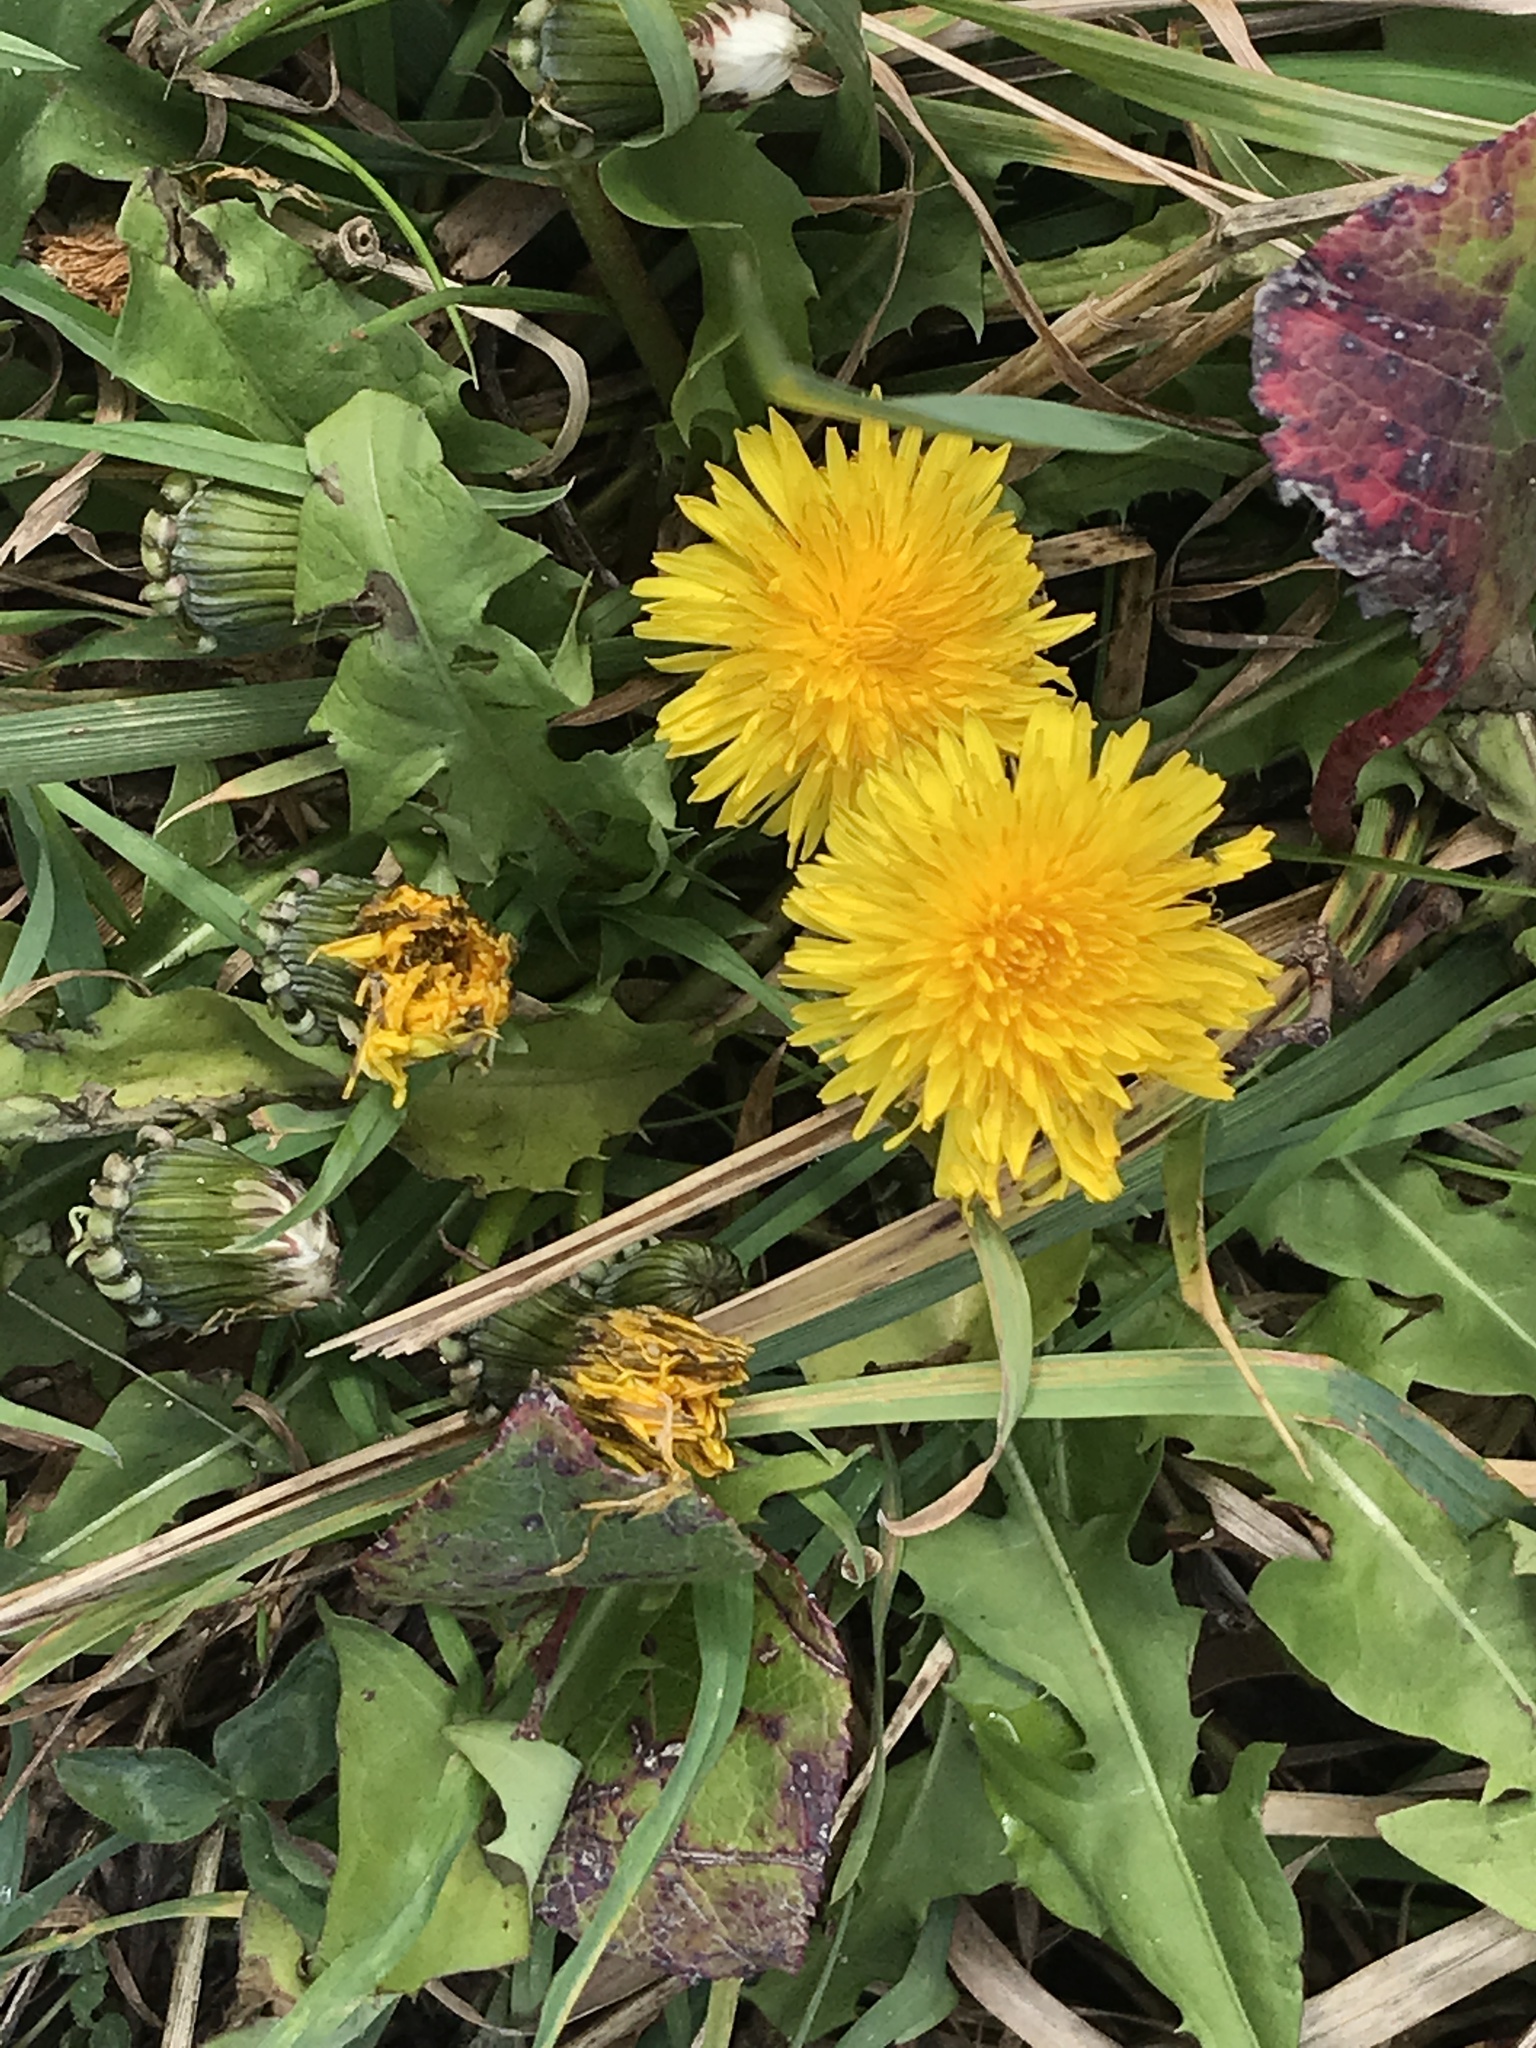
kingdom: Plantae
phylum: Tracheophyta
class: Magnoliopsida
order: Asterales
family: Asteraceae
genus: Taraxacum
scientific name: Taraxacum officinale
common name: Common dandelion
